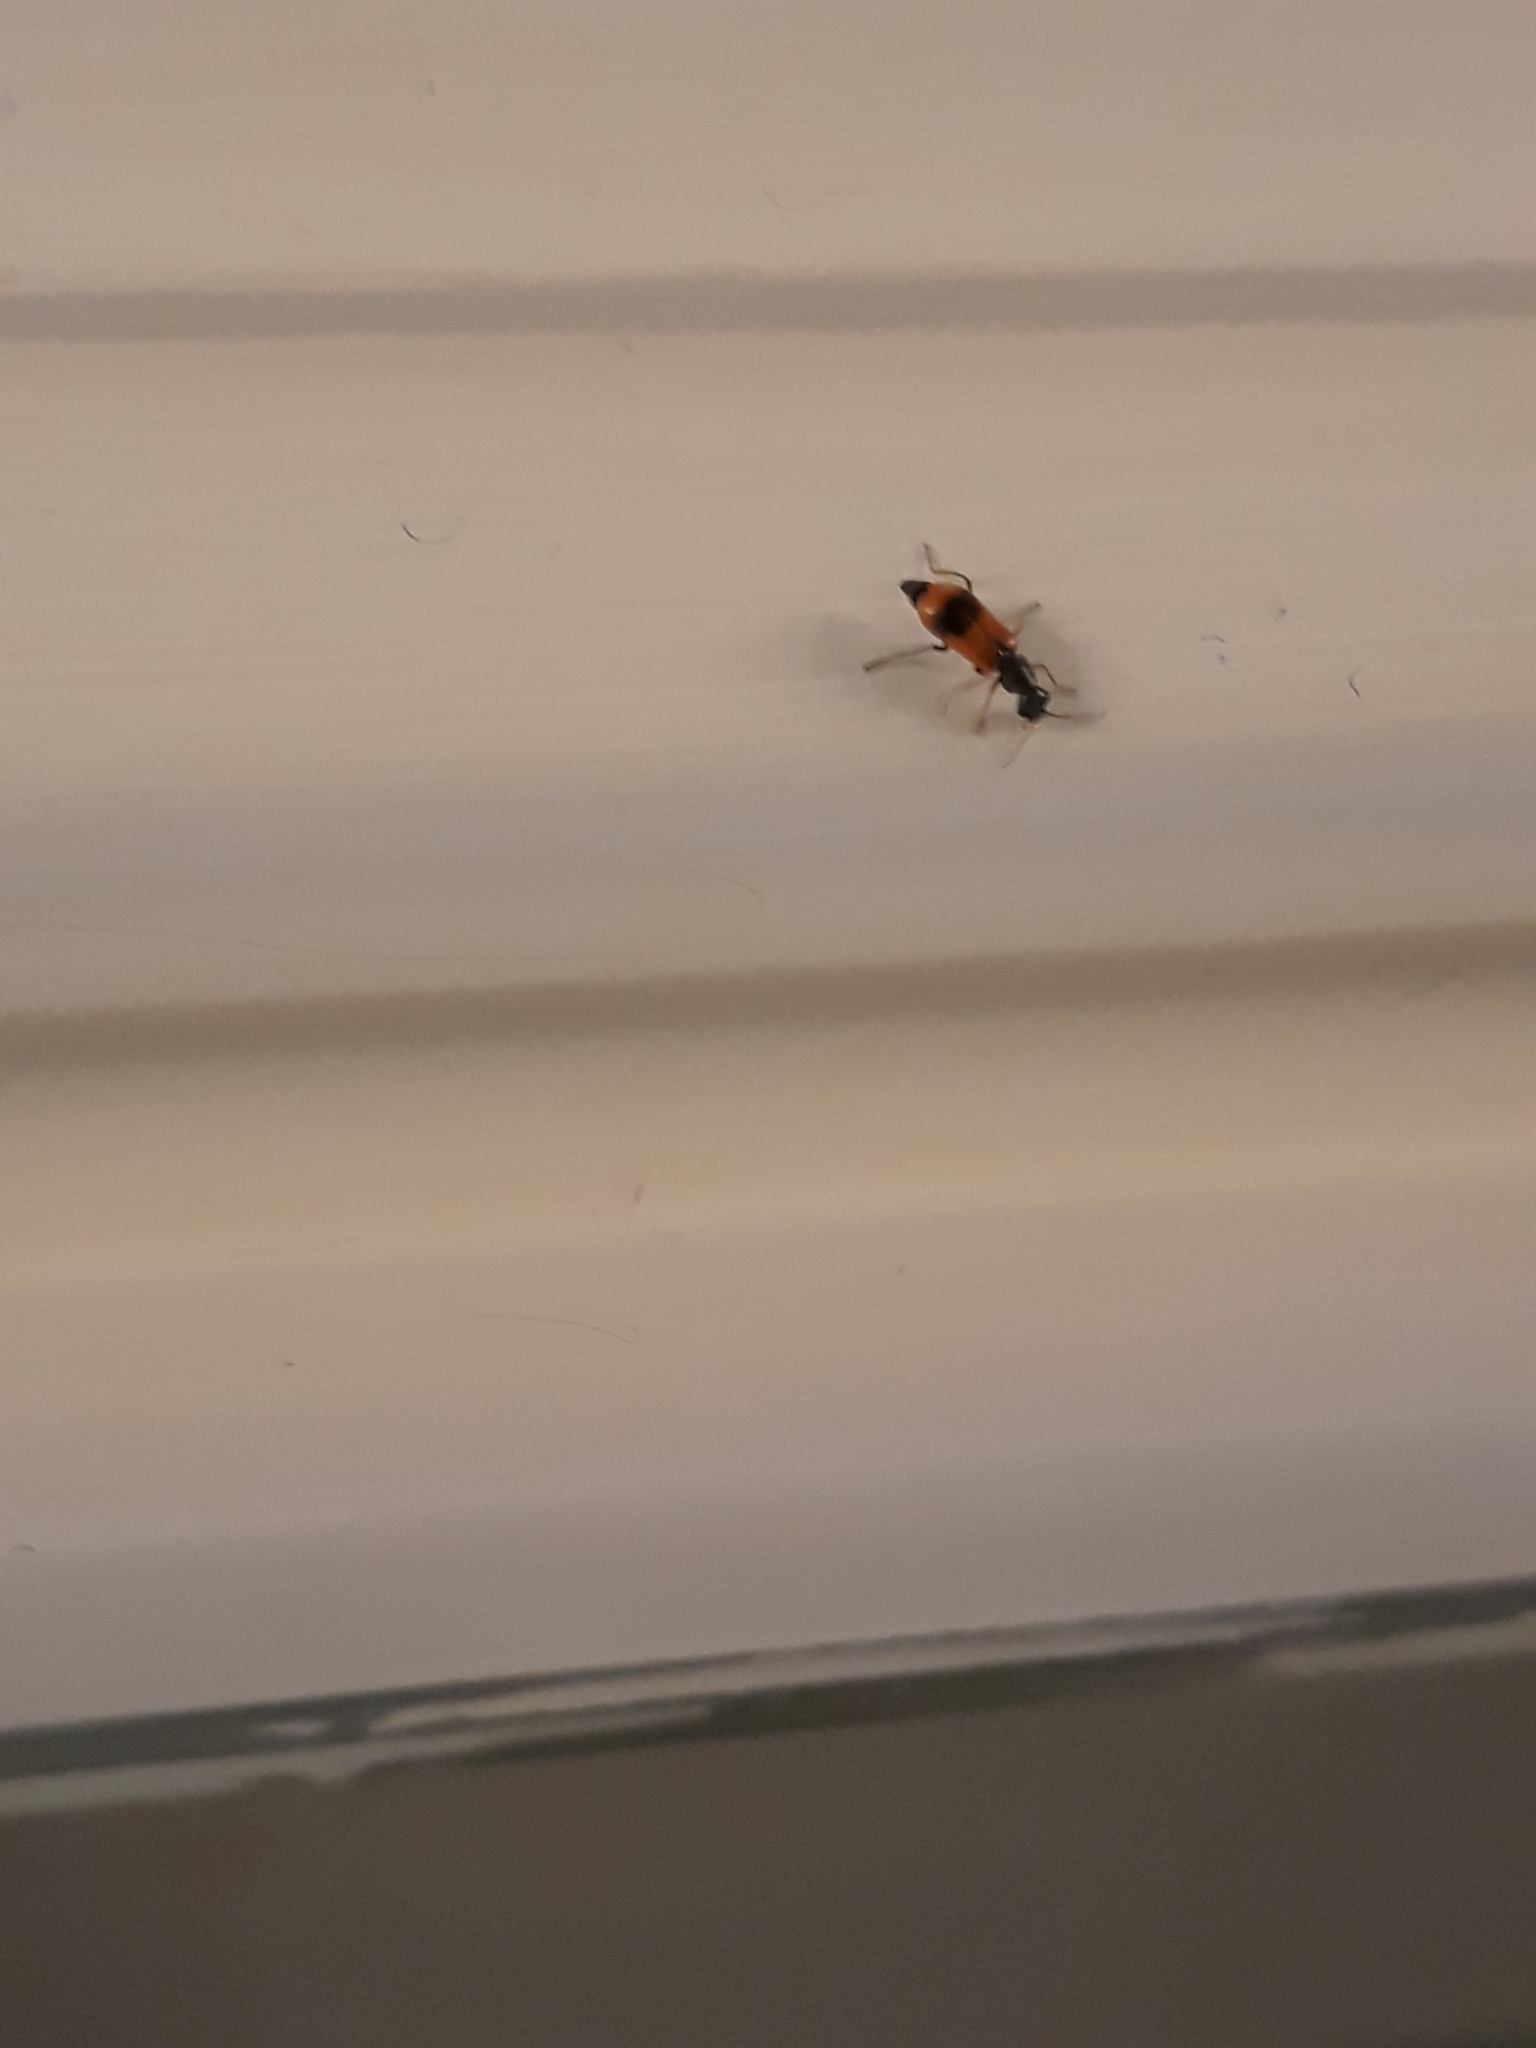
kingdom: Animalia
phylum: Arthropoda
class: Insecta
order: Coleoptera
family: Melyridae
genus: Anthocomus
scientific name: Anthocomus equestris
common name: Black-banded soft-winged flower beetle
